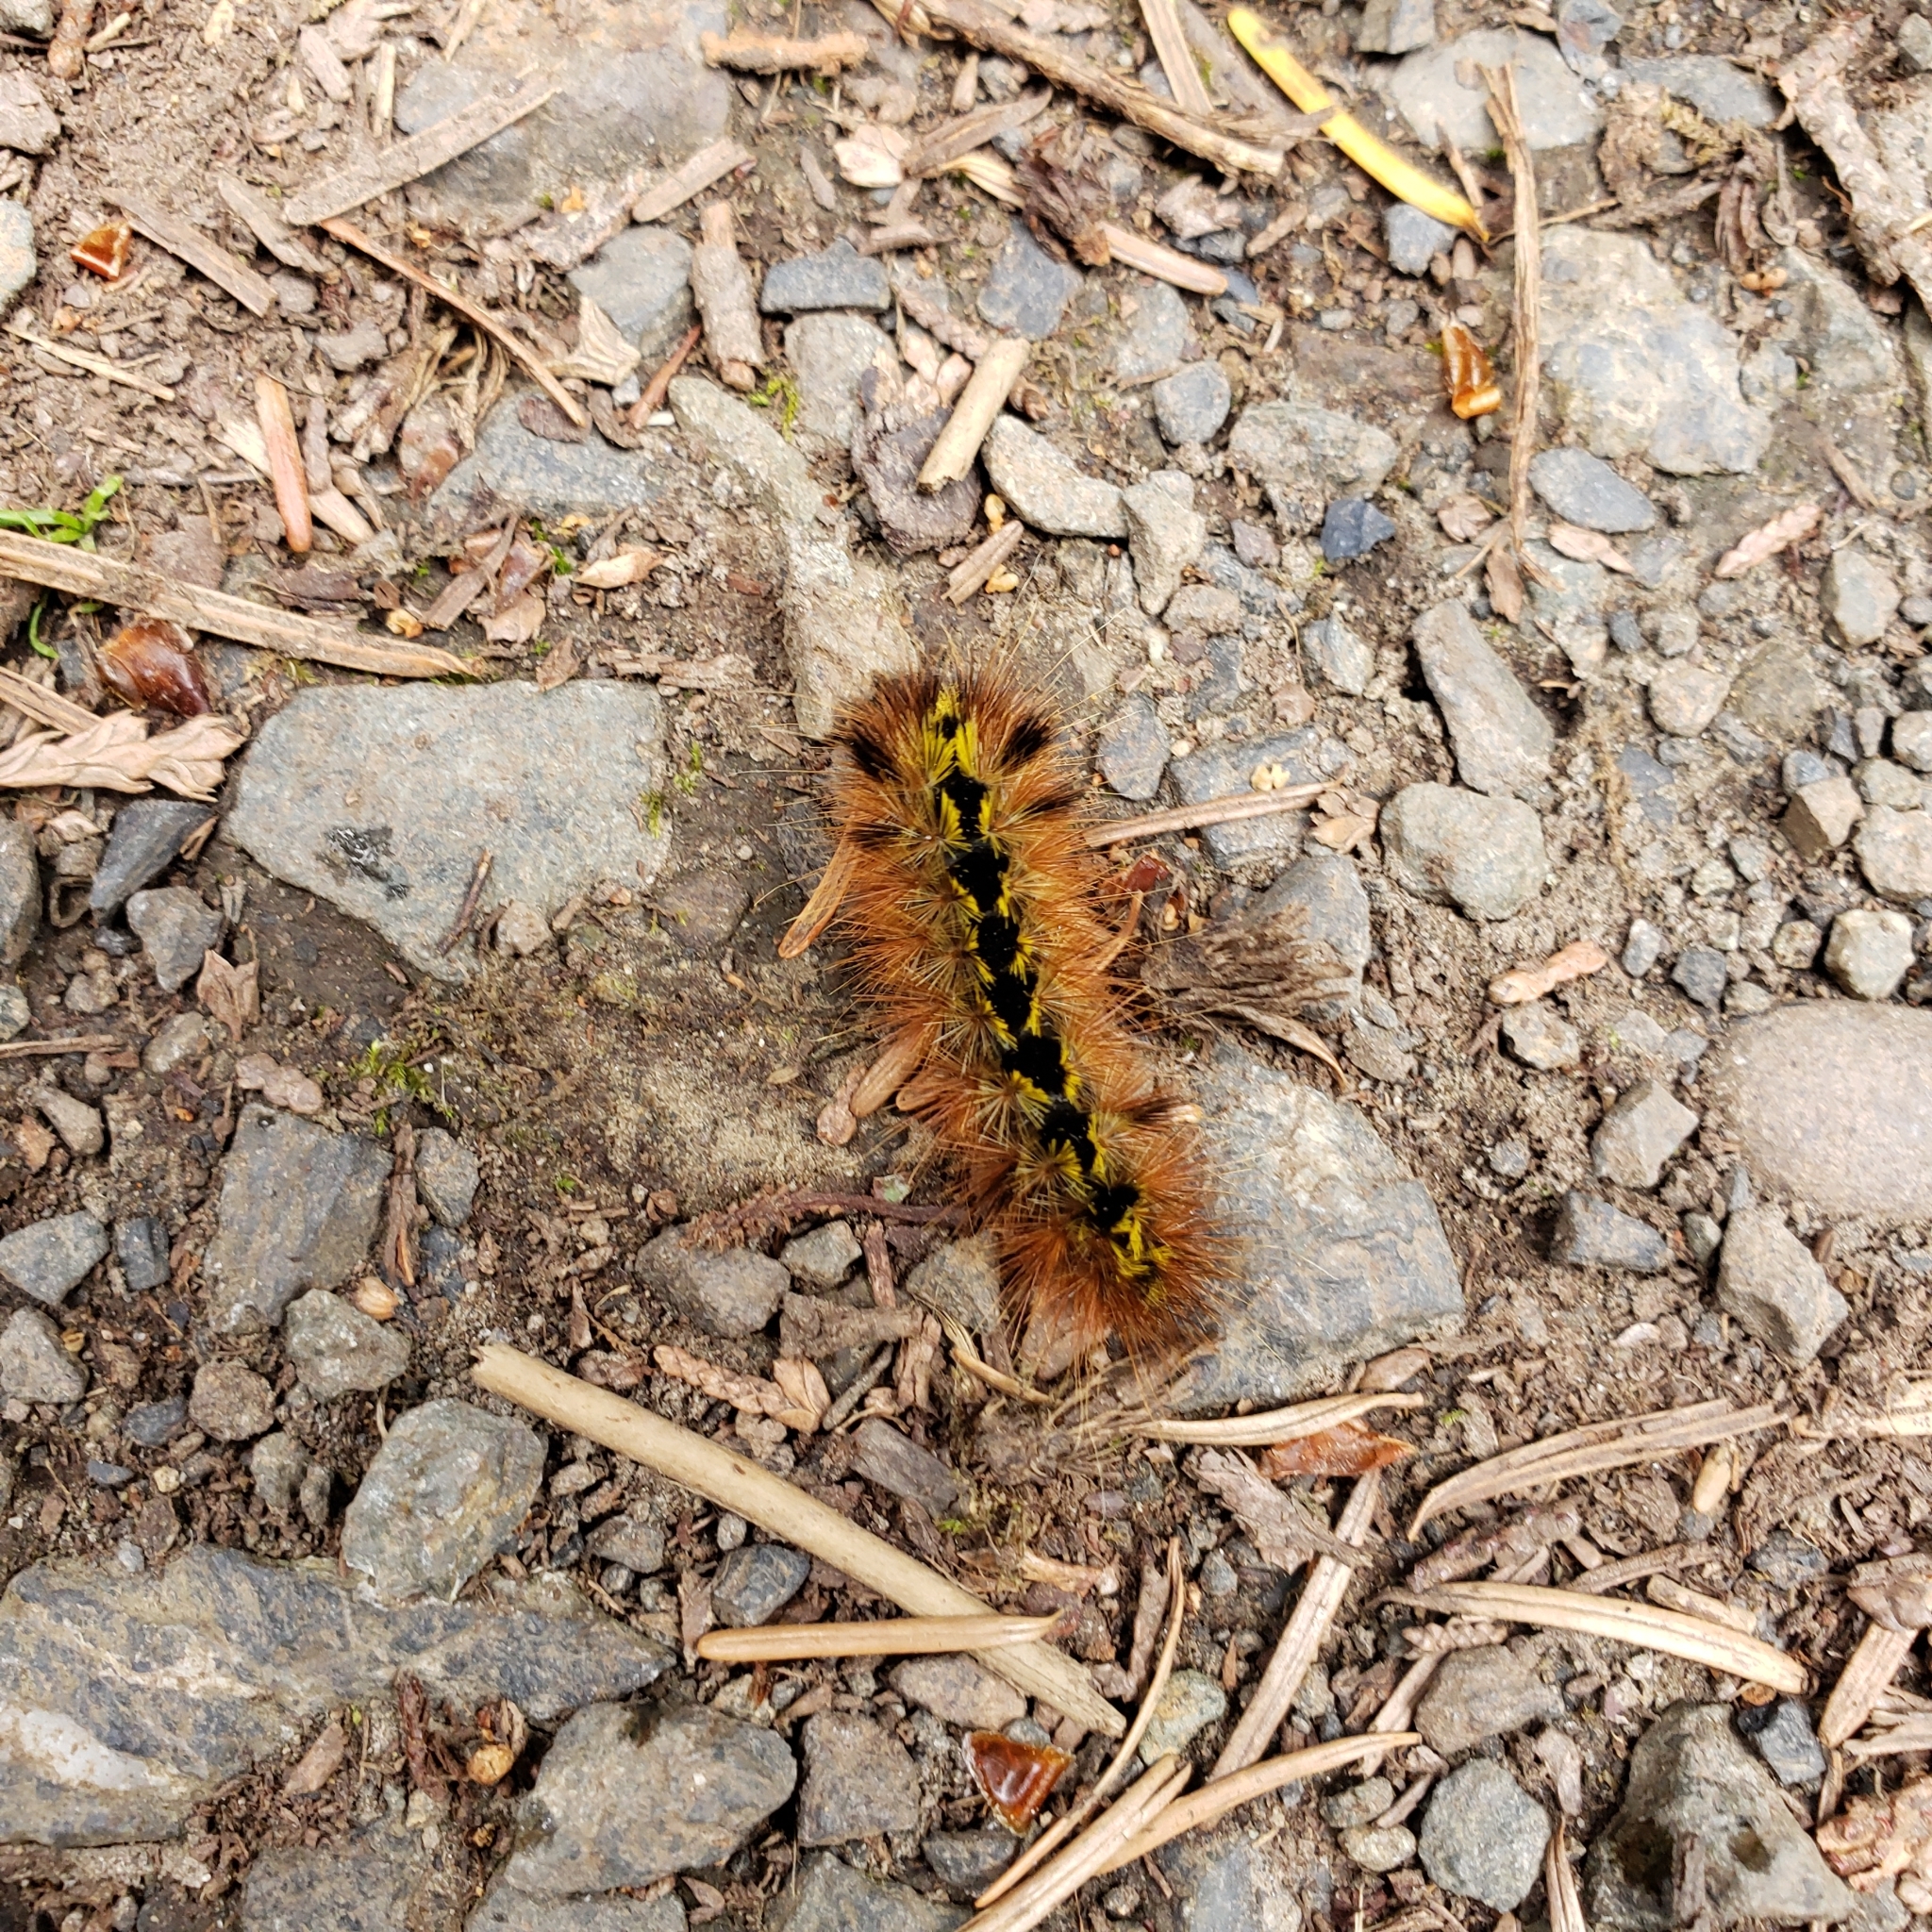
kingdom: Animalia
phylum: Arthropoda
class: Insecta
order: Lepidoptera
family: Erebidae
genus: Lophocampa
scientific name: Lophocampa argentata
